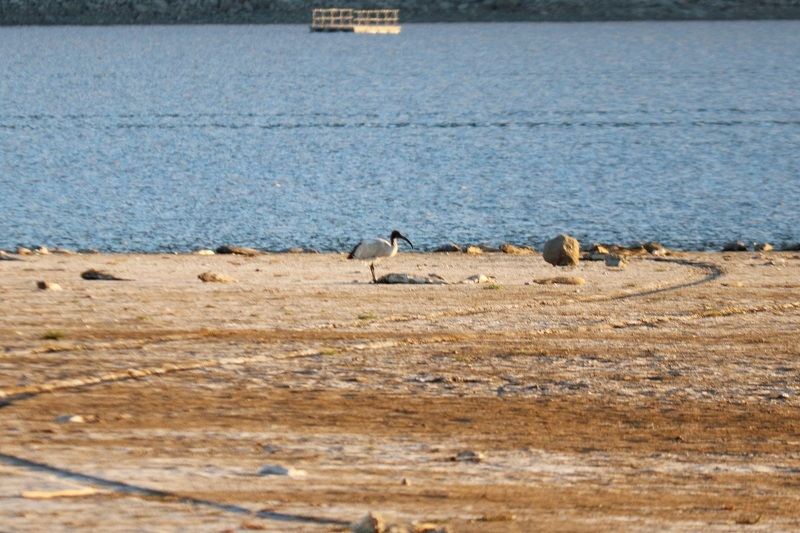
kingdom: Animalia
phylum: Chordata
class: Aves
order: Pelecaniformes
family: Threskiornithidae
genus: Threskiornis
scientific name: Threskiornis aethiopicus
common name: Sacred ibis
